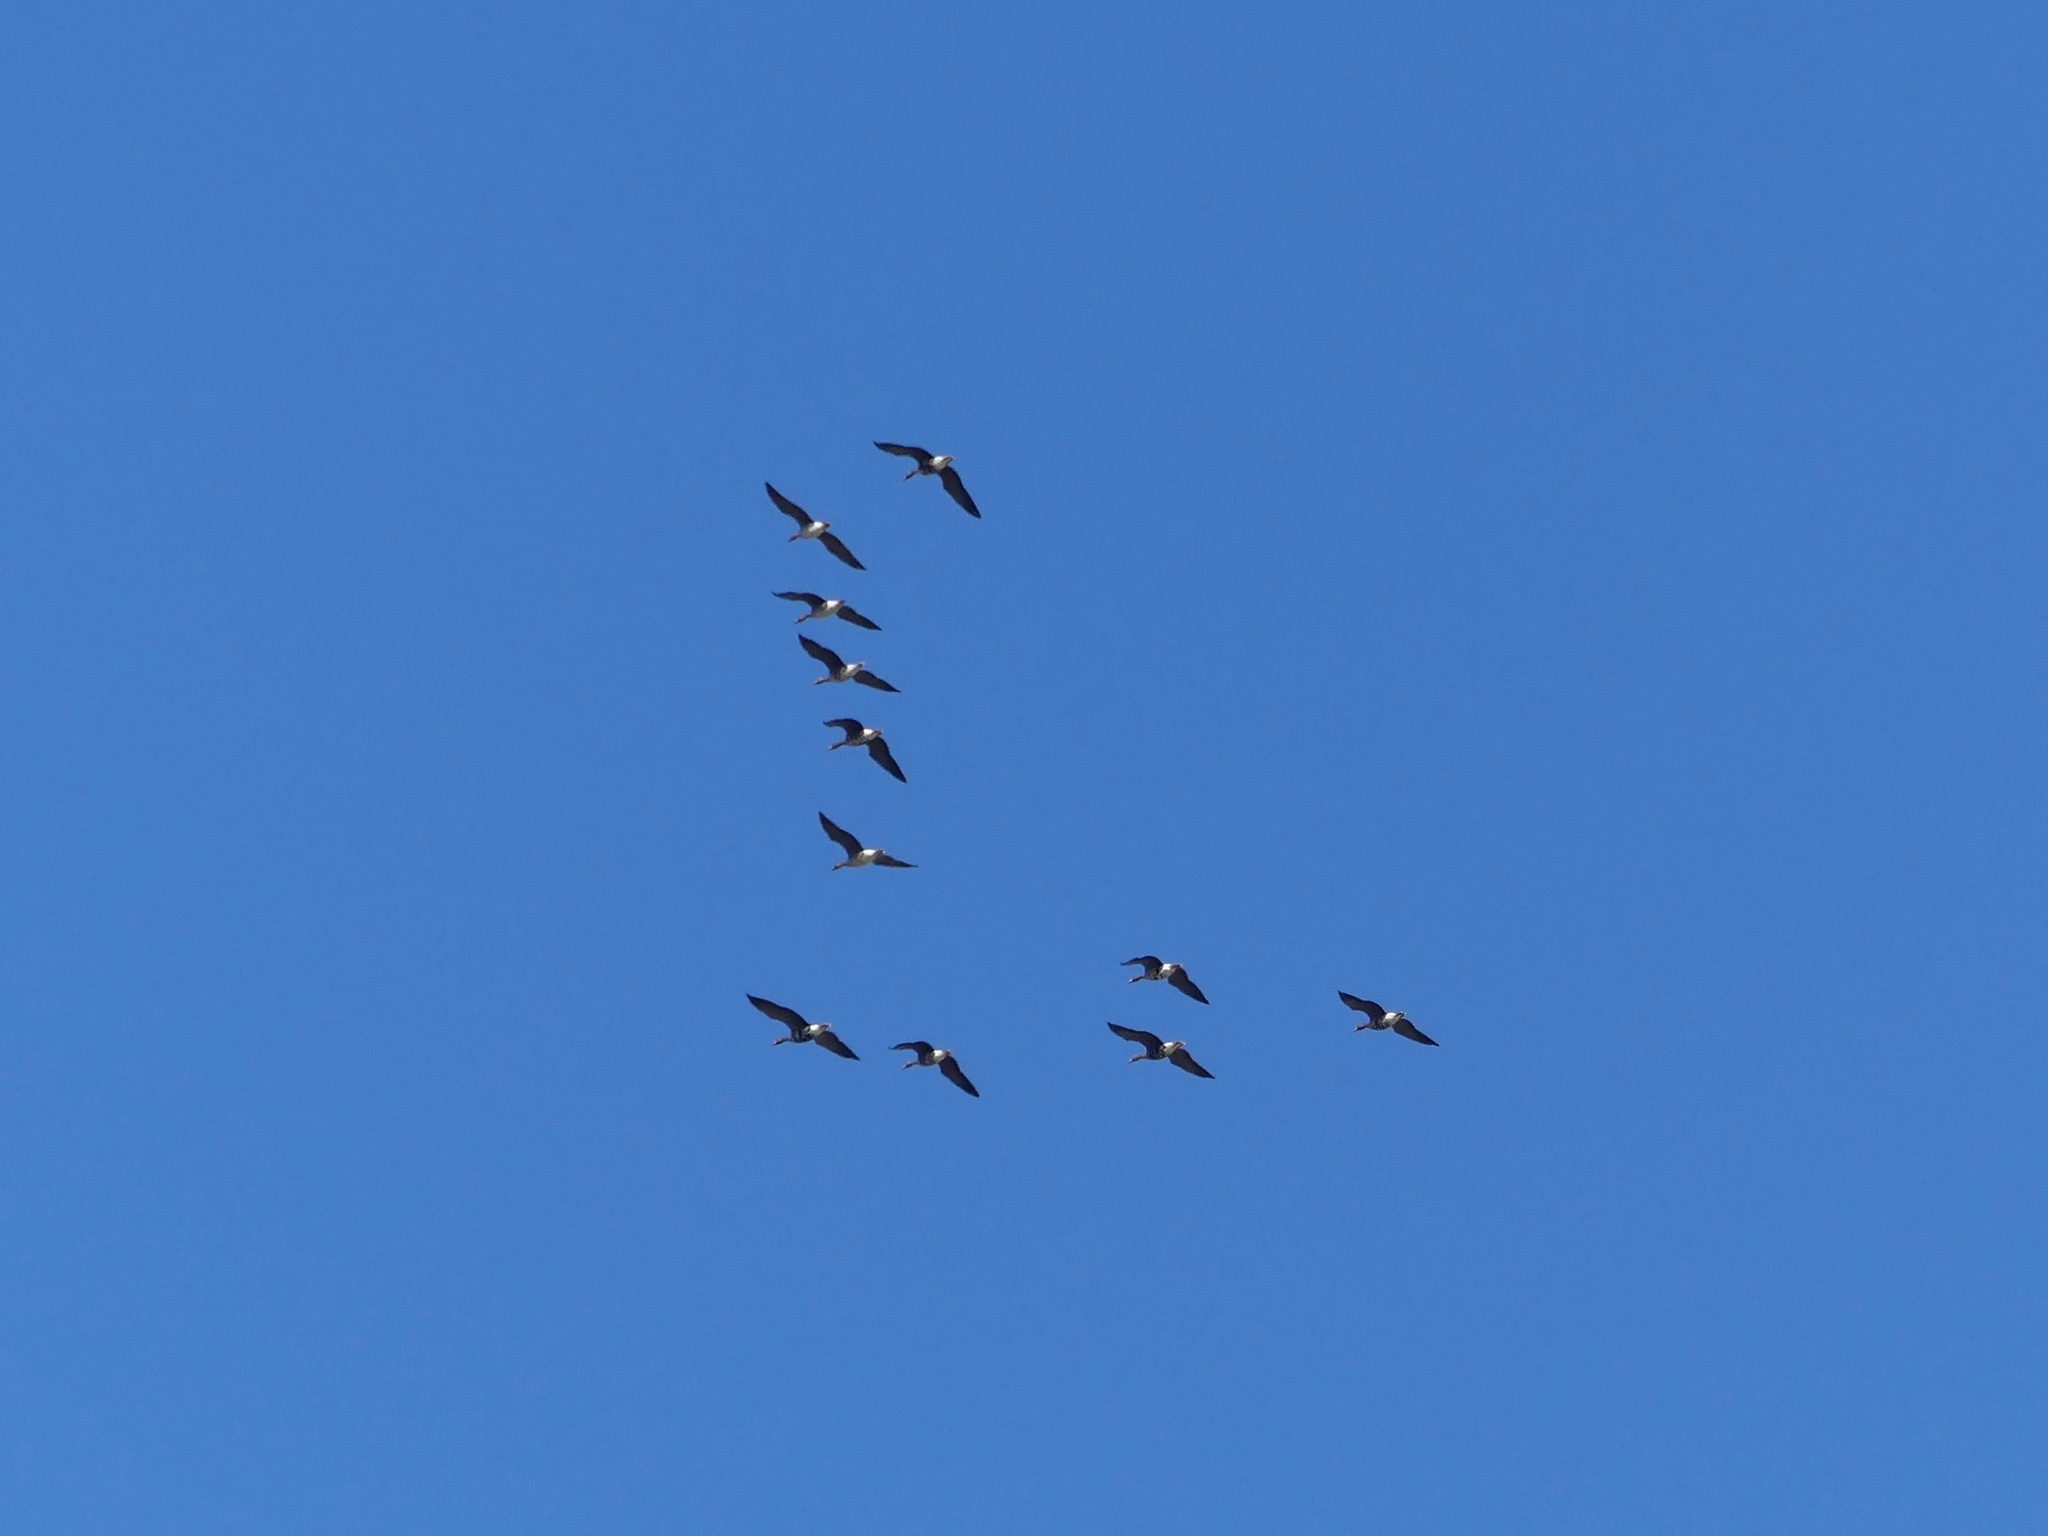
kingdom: Animalia
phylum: Chordata
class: Aves
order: Anseriformes
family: Anatidae
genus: Anser
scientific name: Anser albifrons
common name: Greater white-fronted goose
